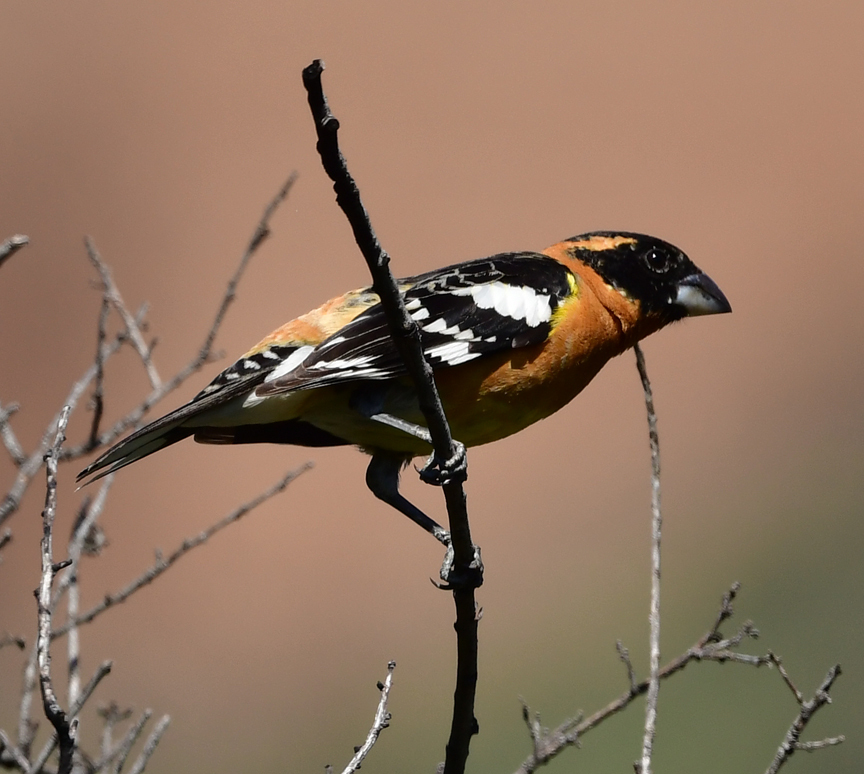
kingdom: Animalia
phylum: Chordata
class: Aves
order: Passeriformes
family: Cardinalidae
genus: Pheucticus
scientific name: Pheucticus melanocephalus
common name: Black-headed grosbeak
